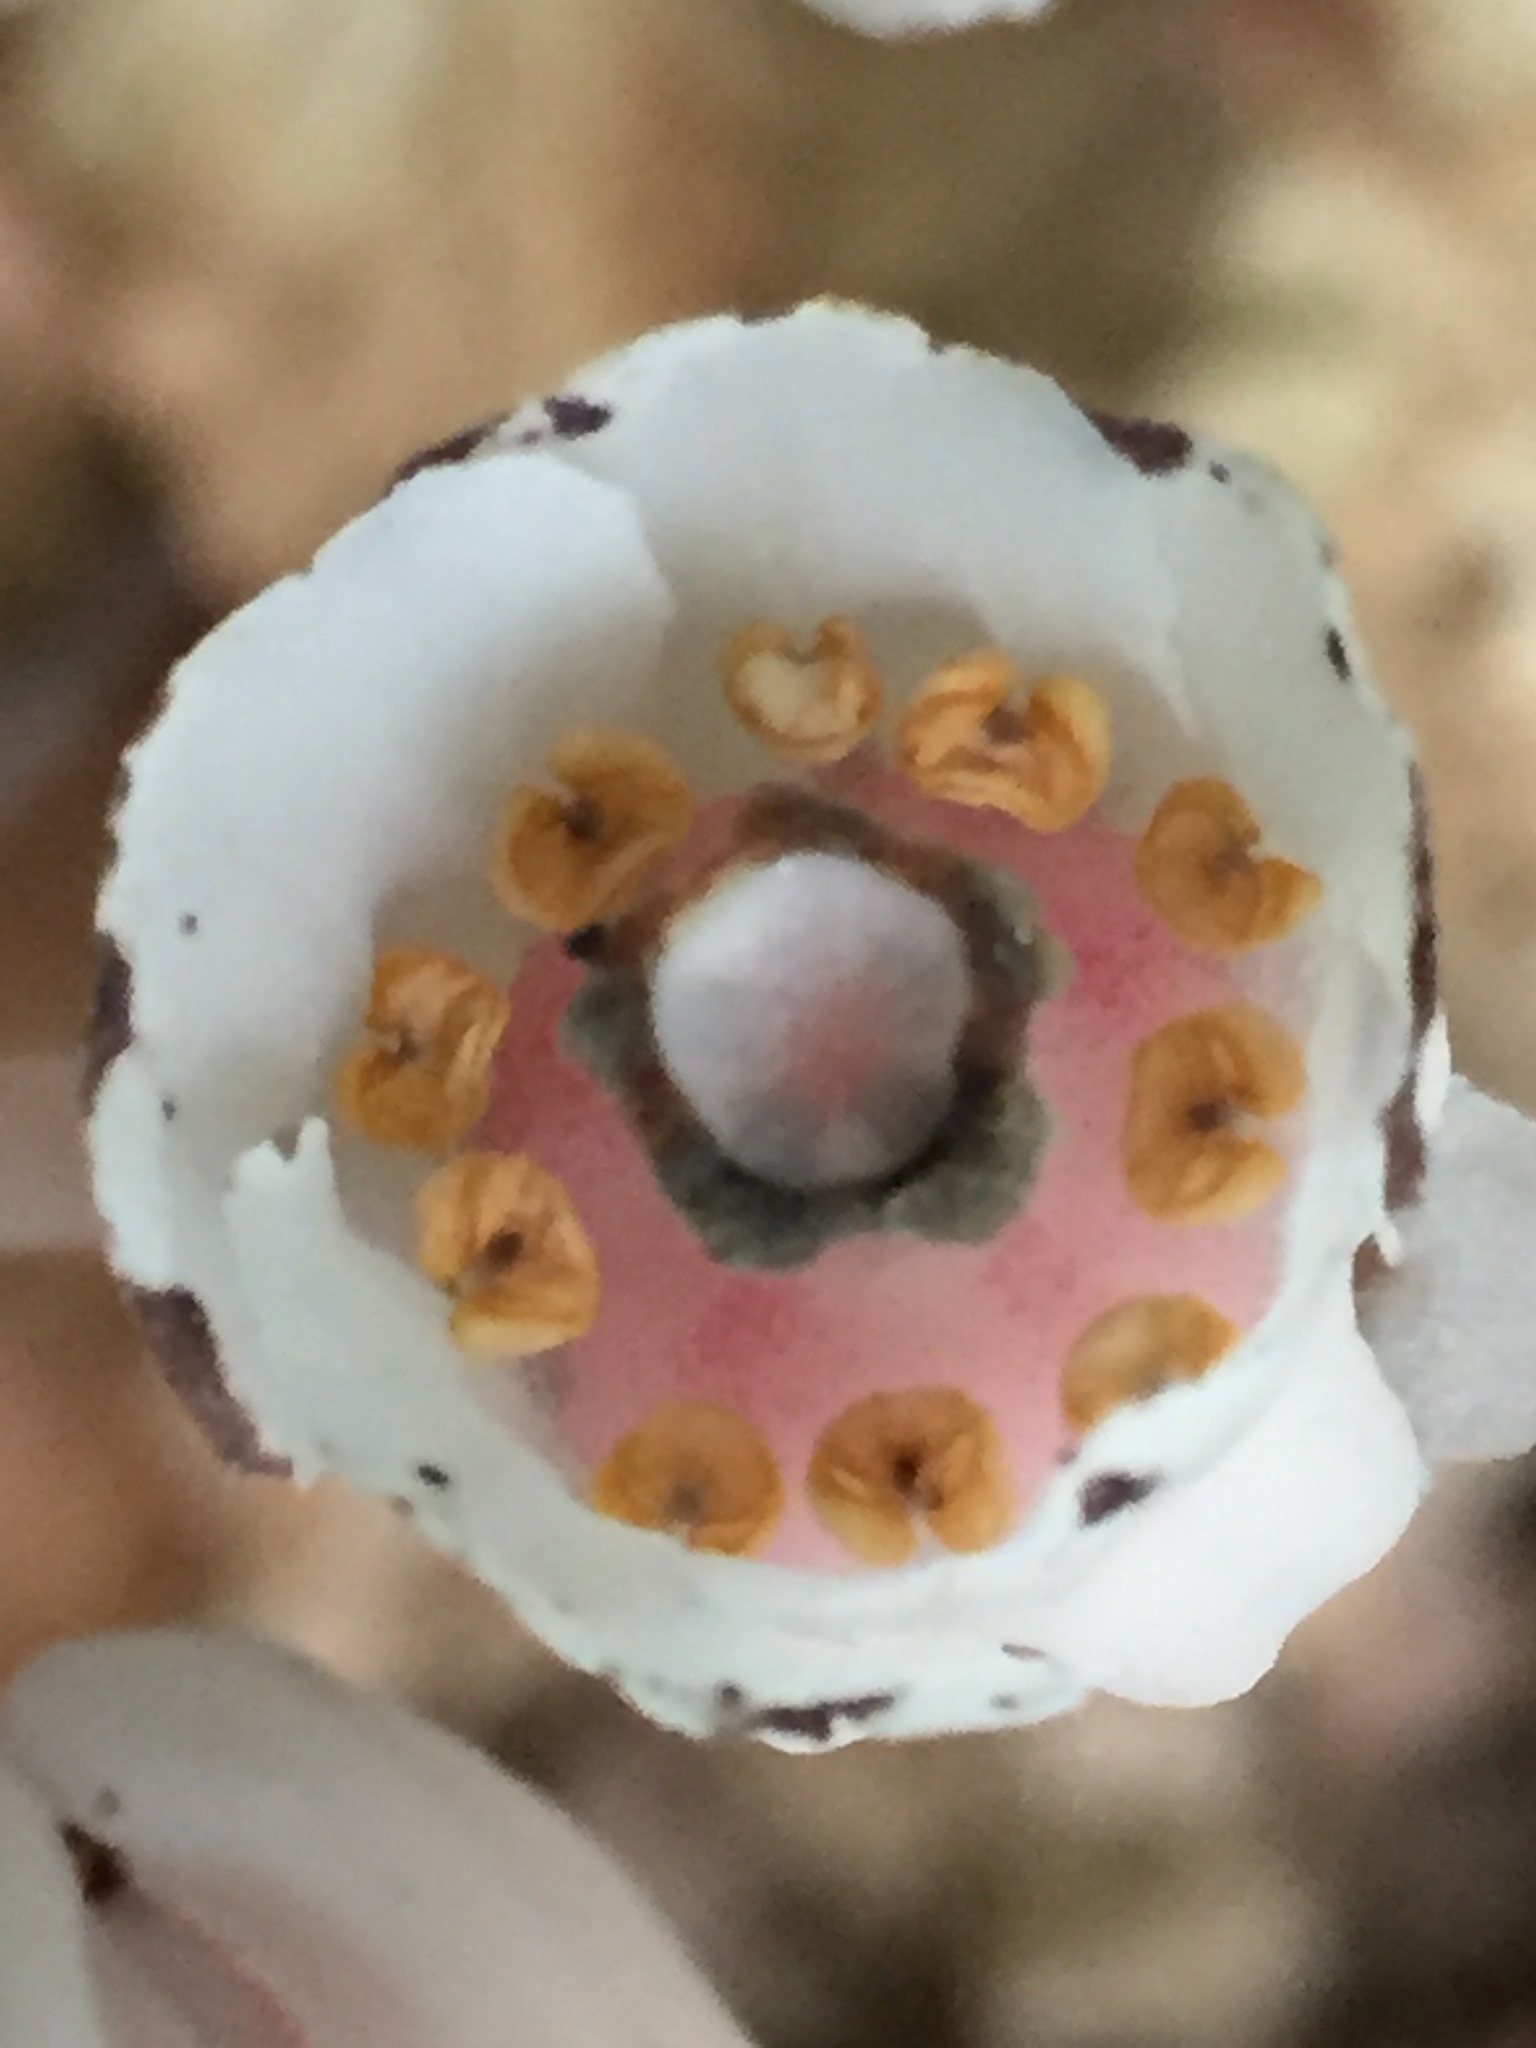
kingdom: Plantae
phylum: Tracheophyta
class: Magnoliopsida
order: Ericales
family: Ericaceae
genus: Monotropa
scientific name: Monotropa uniflora
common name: Convulsion root
